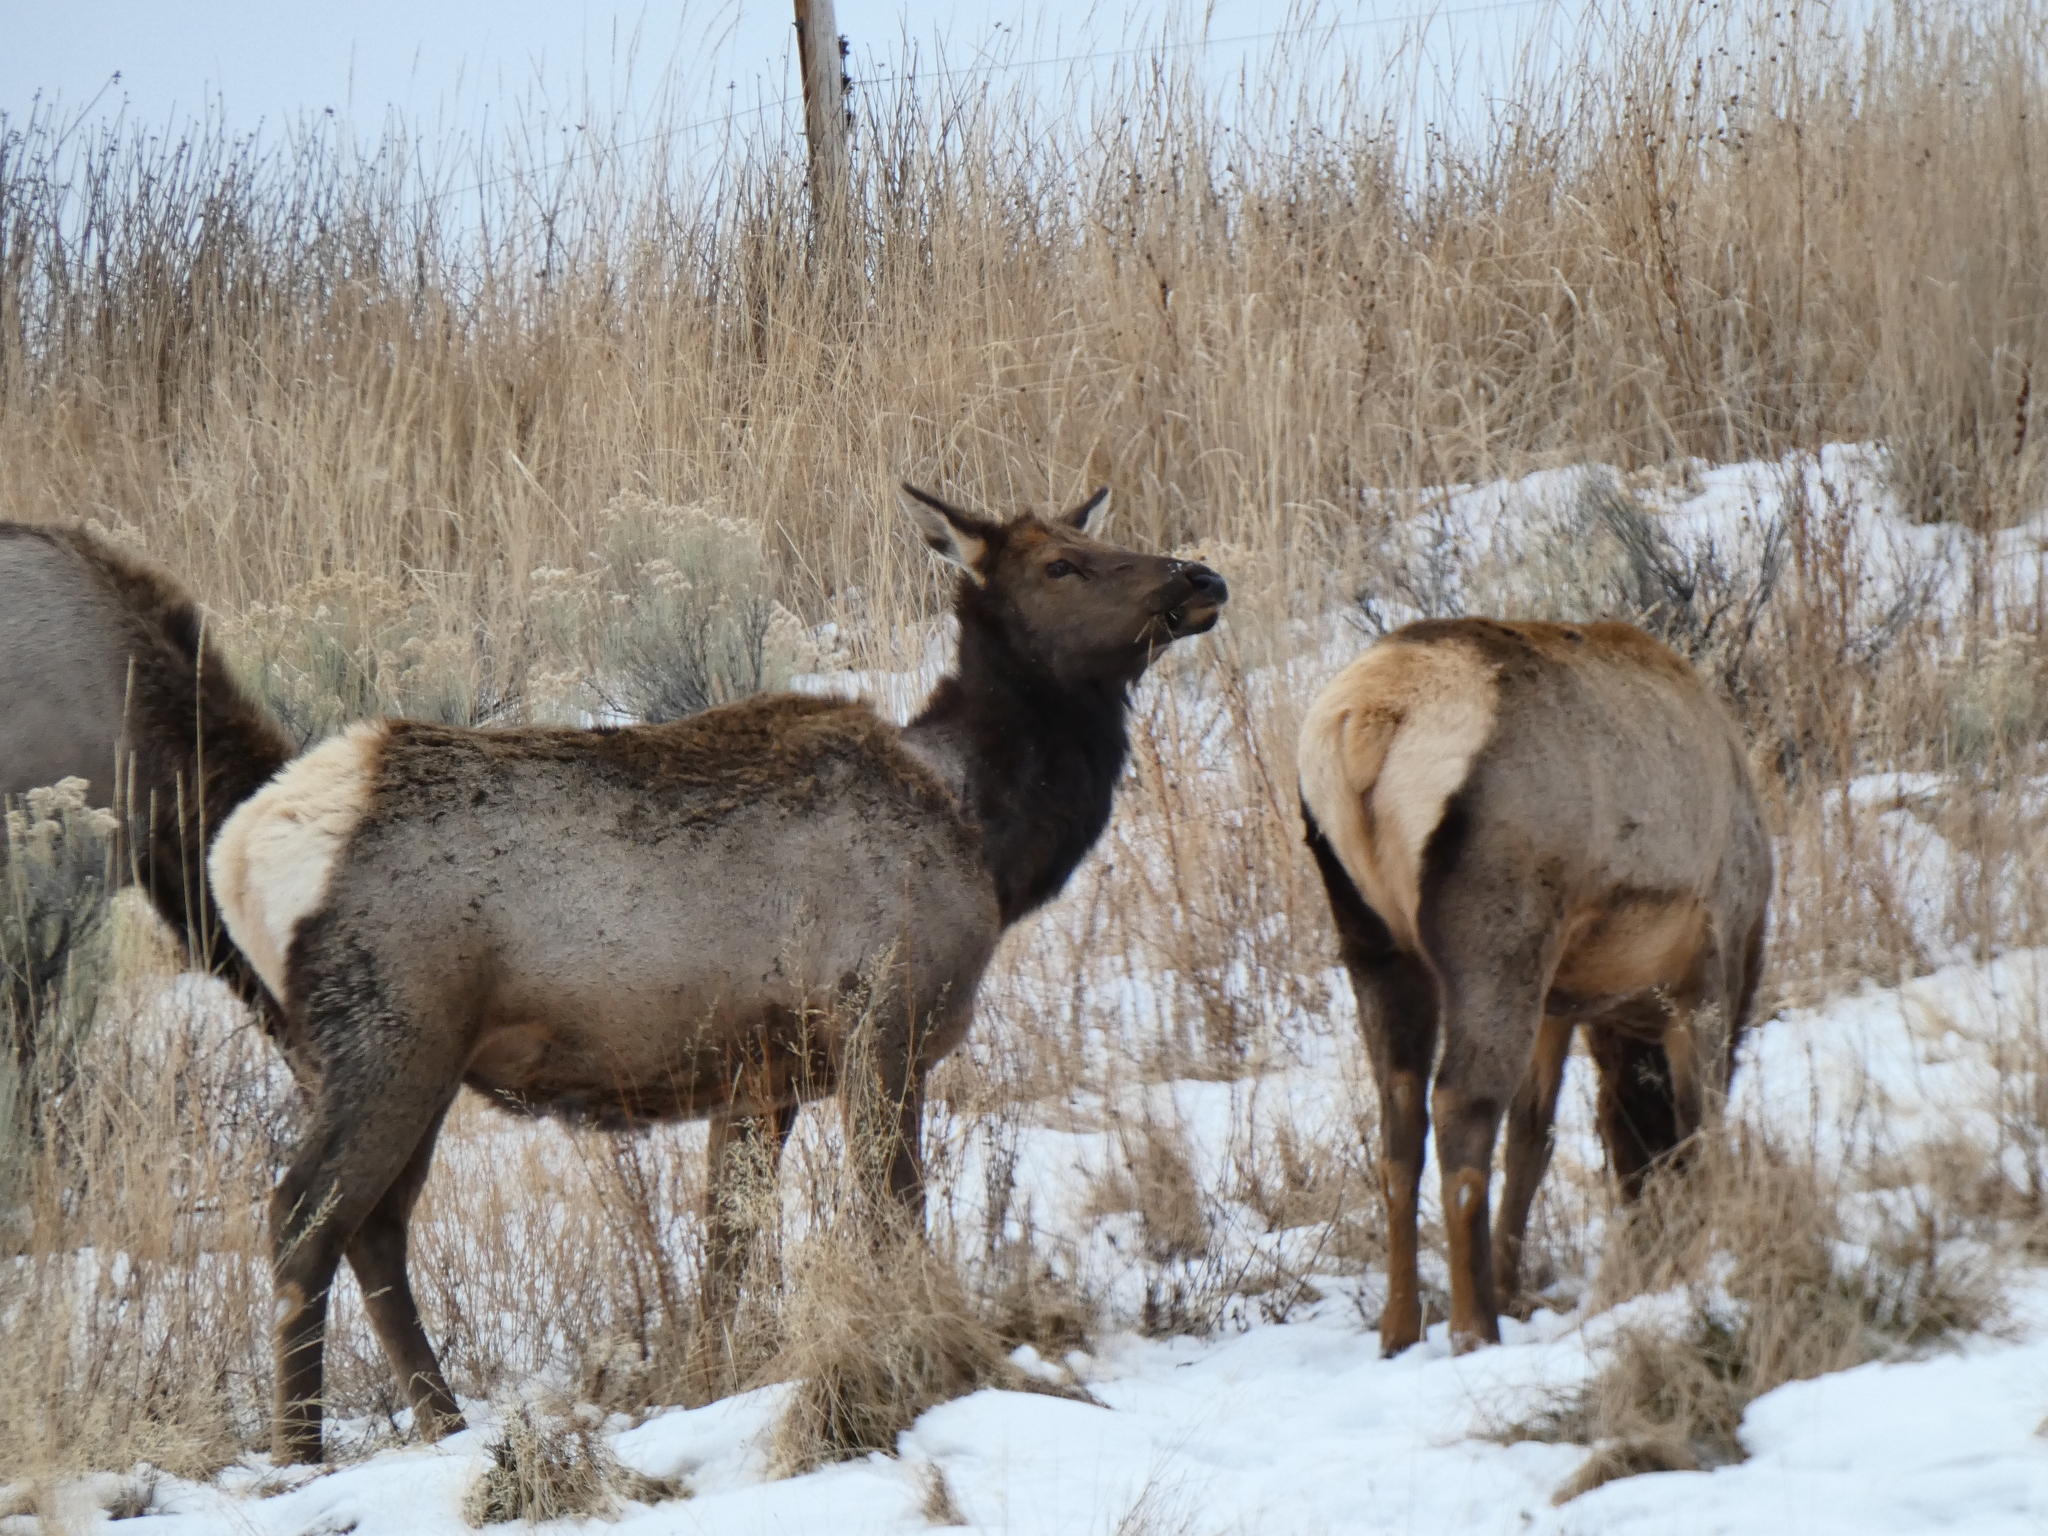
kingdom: Animalia
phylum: Chordata
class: Mammalia
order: Artiodactyla
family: Cervidae
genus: Cervus
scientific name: Cervus elaphus
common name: Red deer
